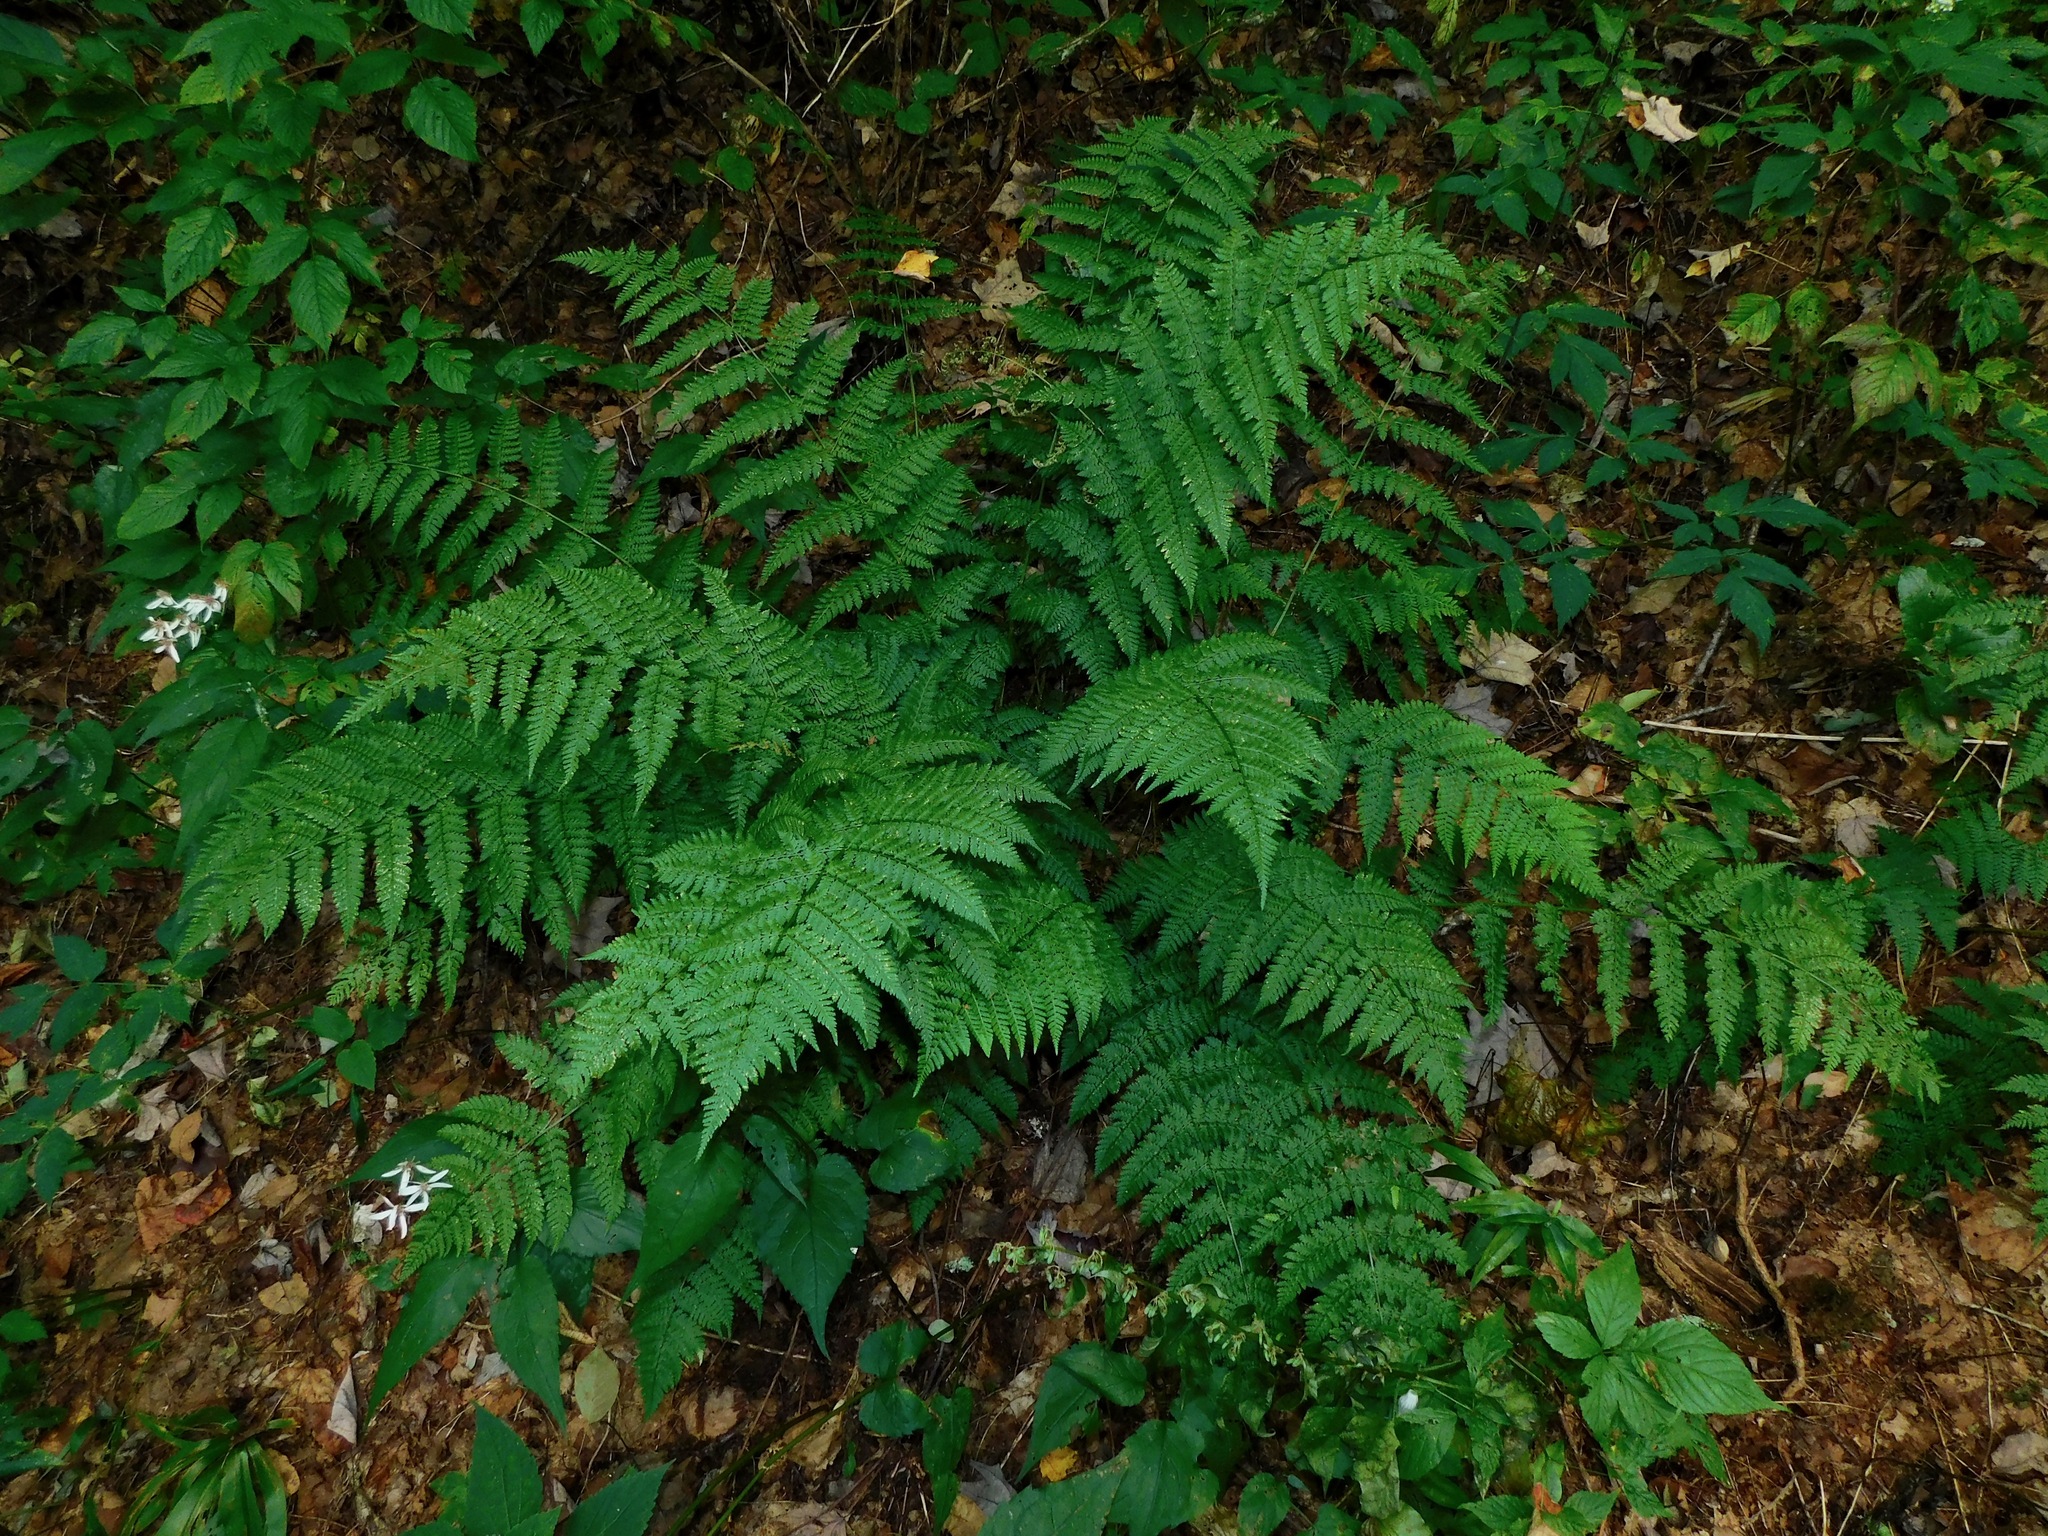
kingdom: Plantae
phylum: Tracheophyta
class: Polypodiopsida
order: Polypodiales
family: Dryopteridaceae
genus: Dryopteris
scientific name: Dryopteris intermedia
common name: Evergreen wood fern
